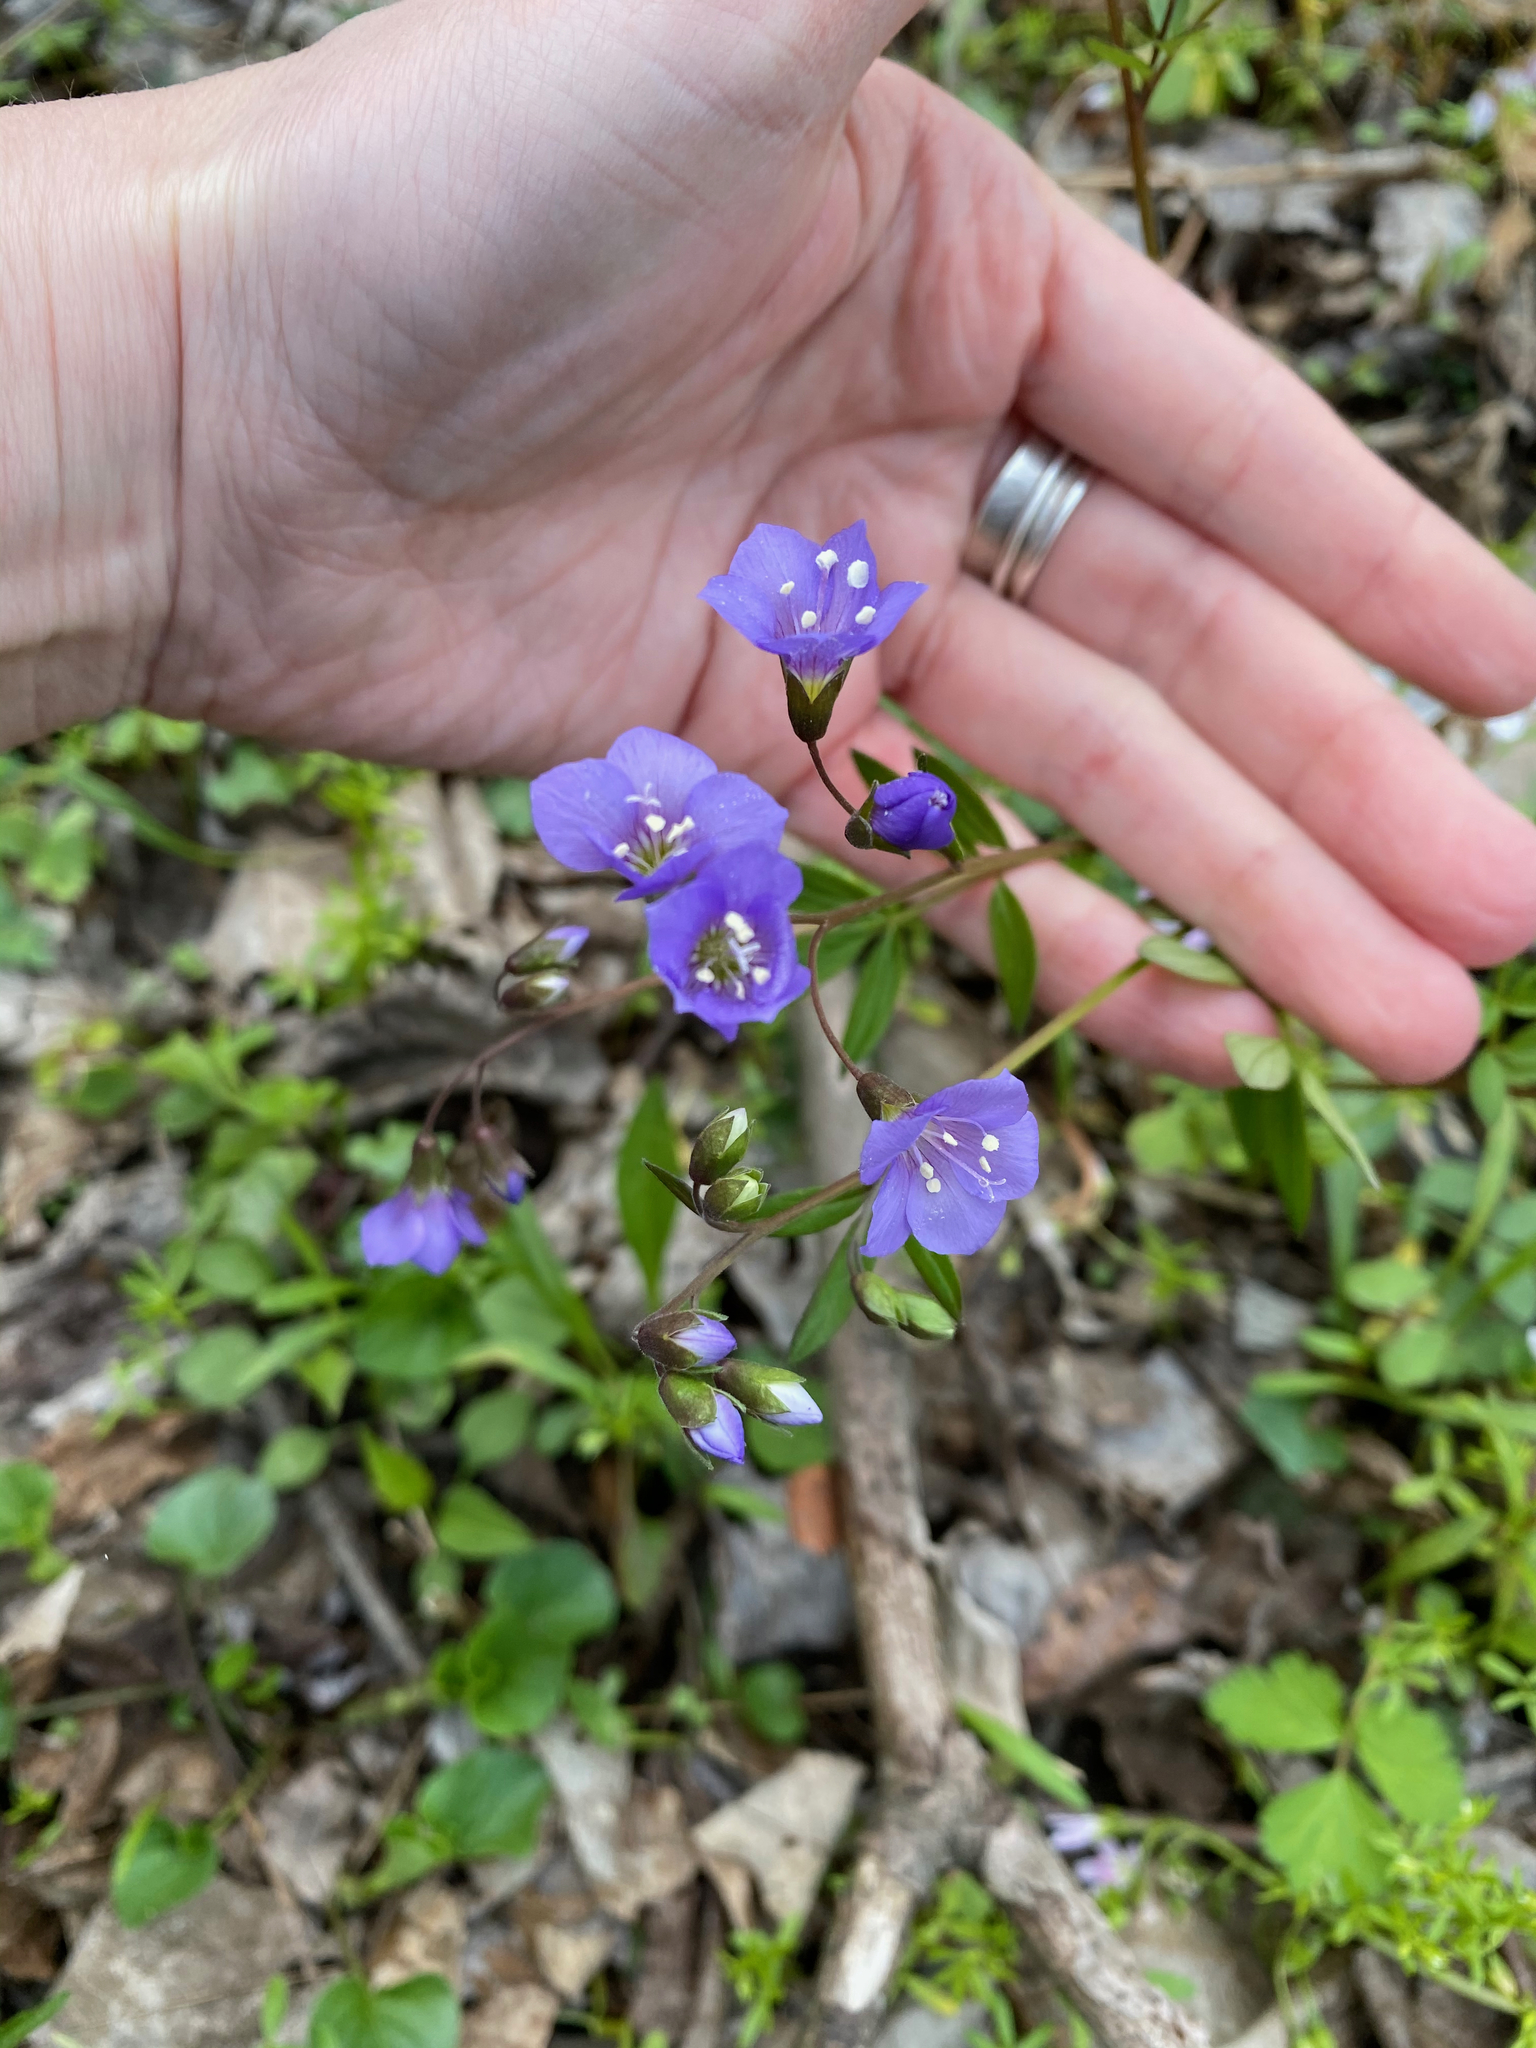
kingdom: Plantae
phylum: Tracheophyta
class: Magnoliopsida
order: Ericales
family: Polemoniaceae
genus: Polemonium
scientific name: Polemonium reptans
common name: Creeping jacob's-ladder
